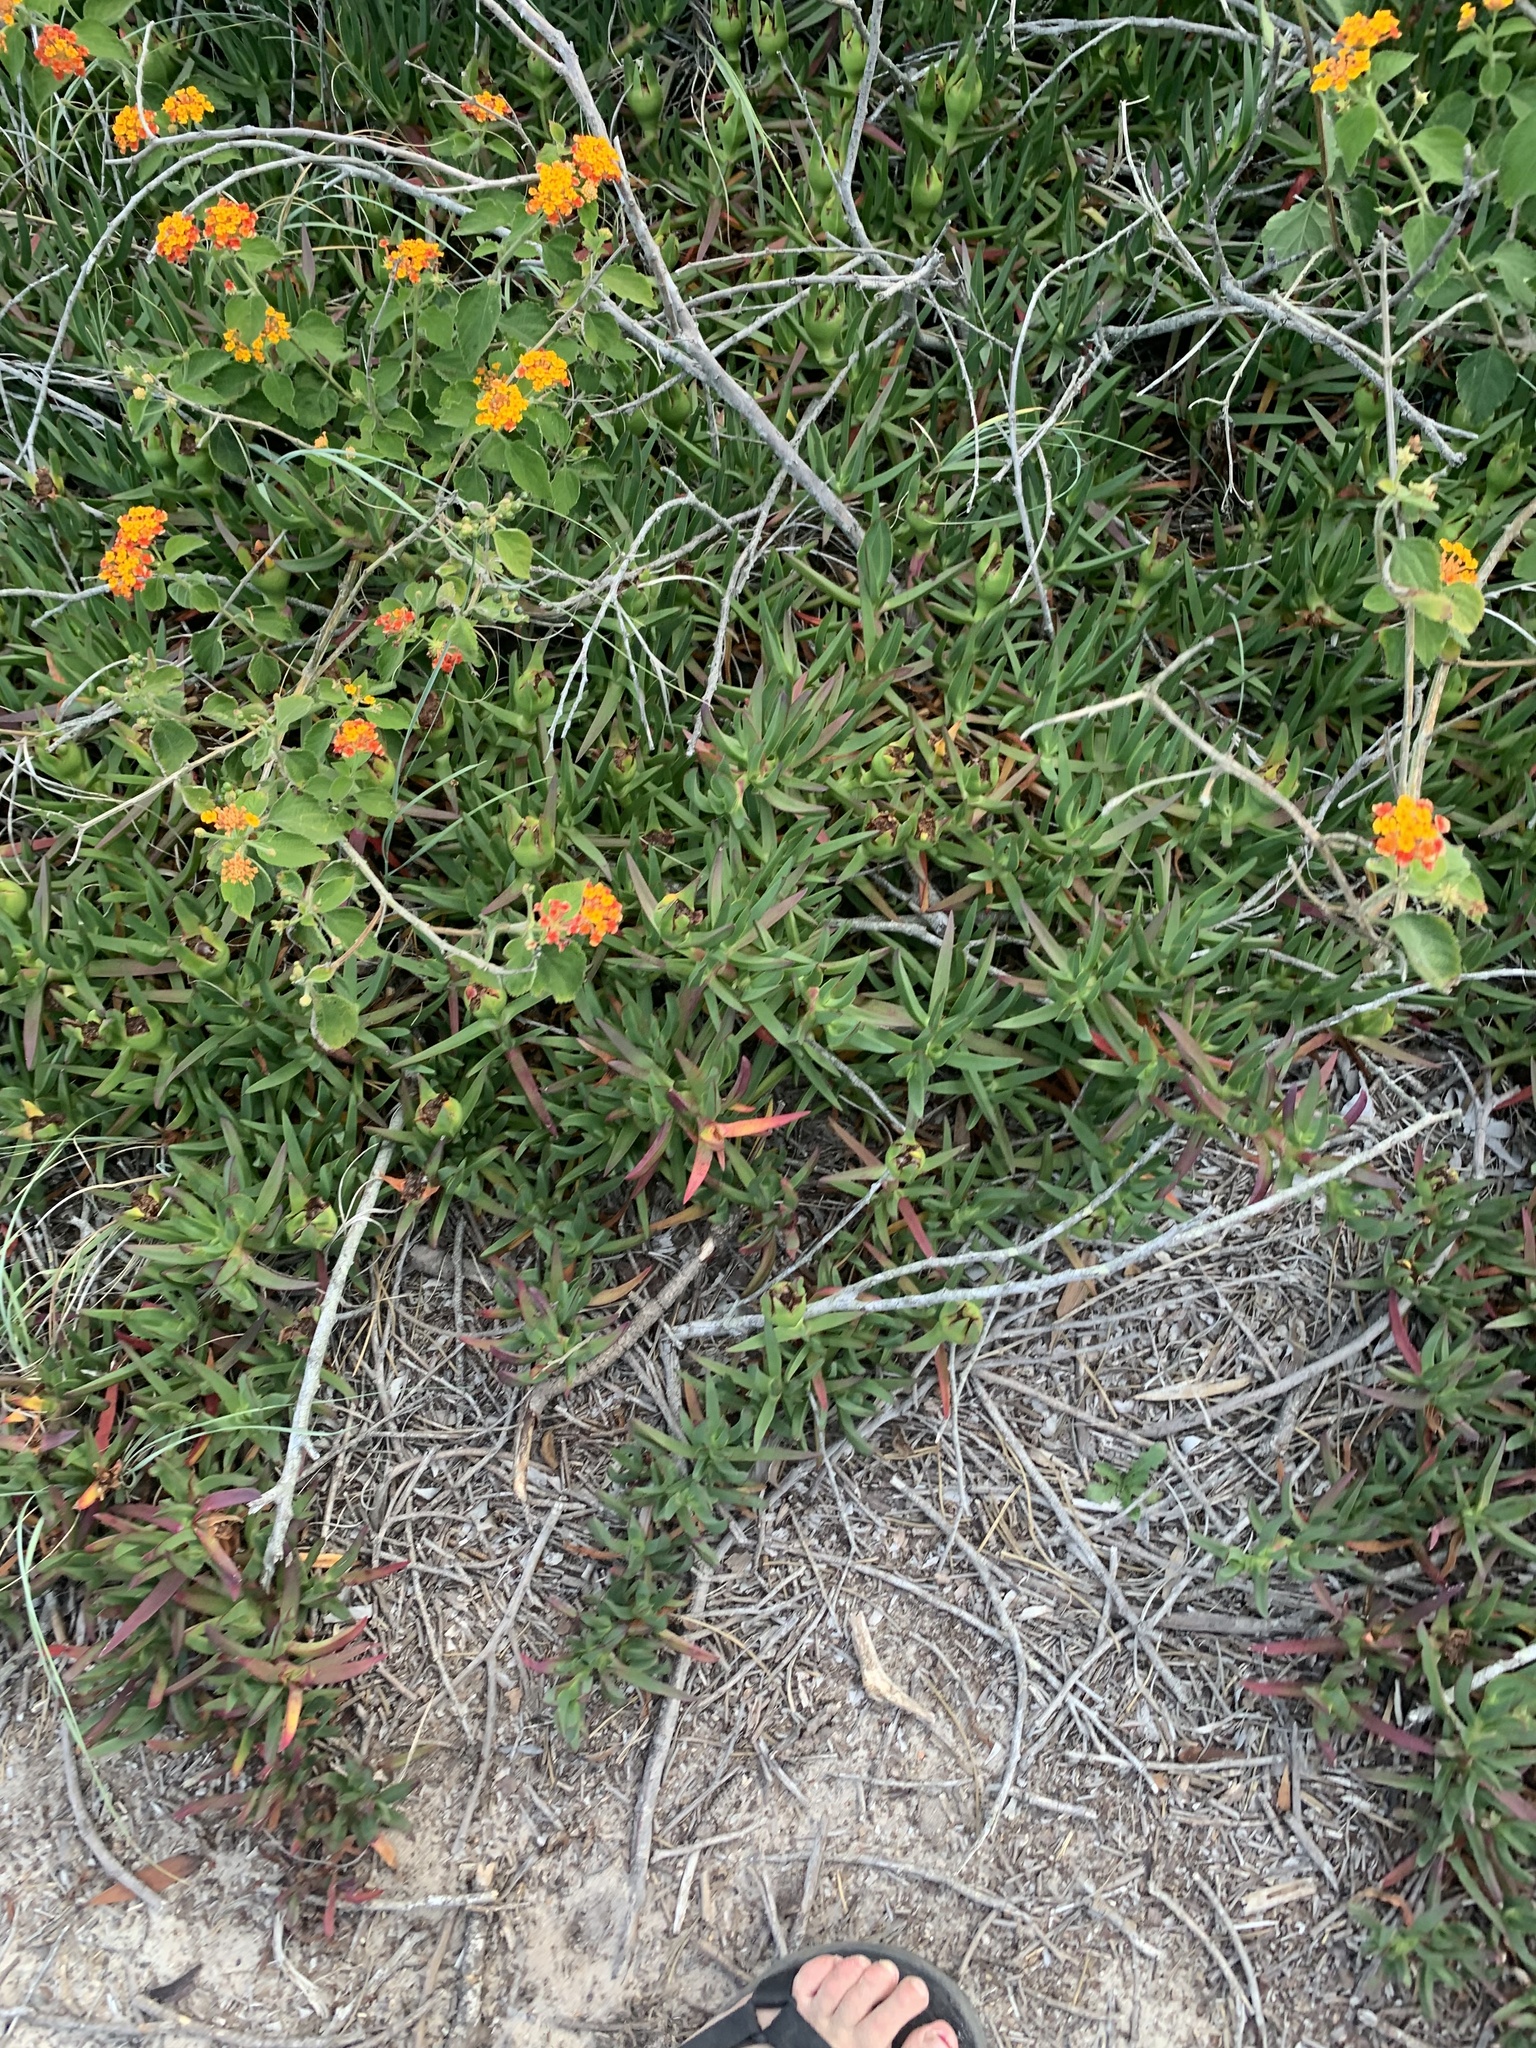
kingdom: Plantae
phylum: Tracheophyta
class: Magnoliopsida
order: Caryophyllales
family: Aizoaceae
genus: Carpobrotus
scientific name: Carpobrotus edulis
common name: Hottentot-fig
